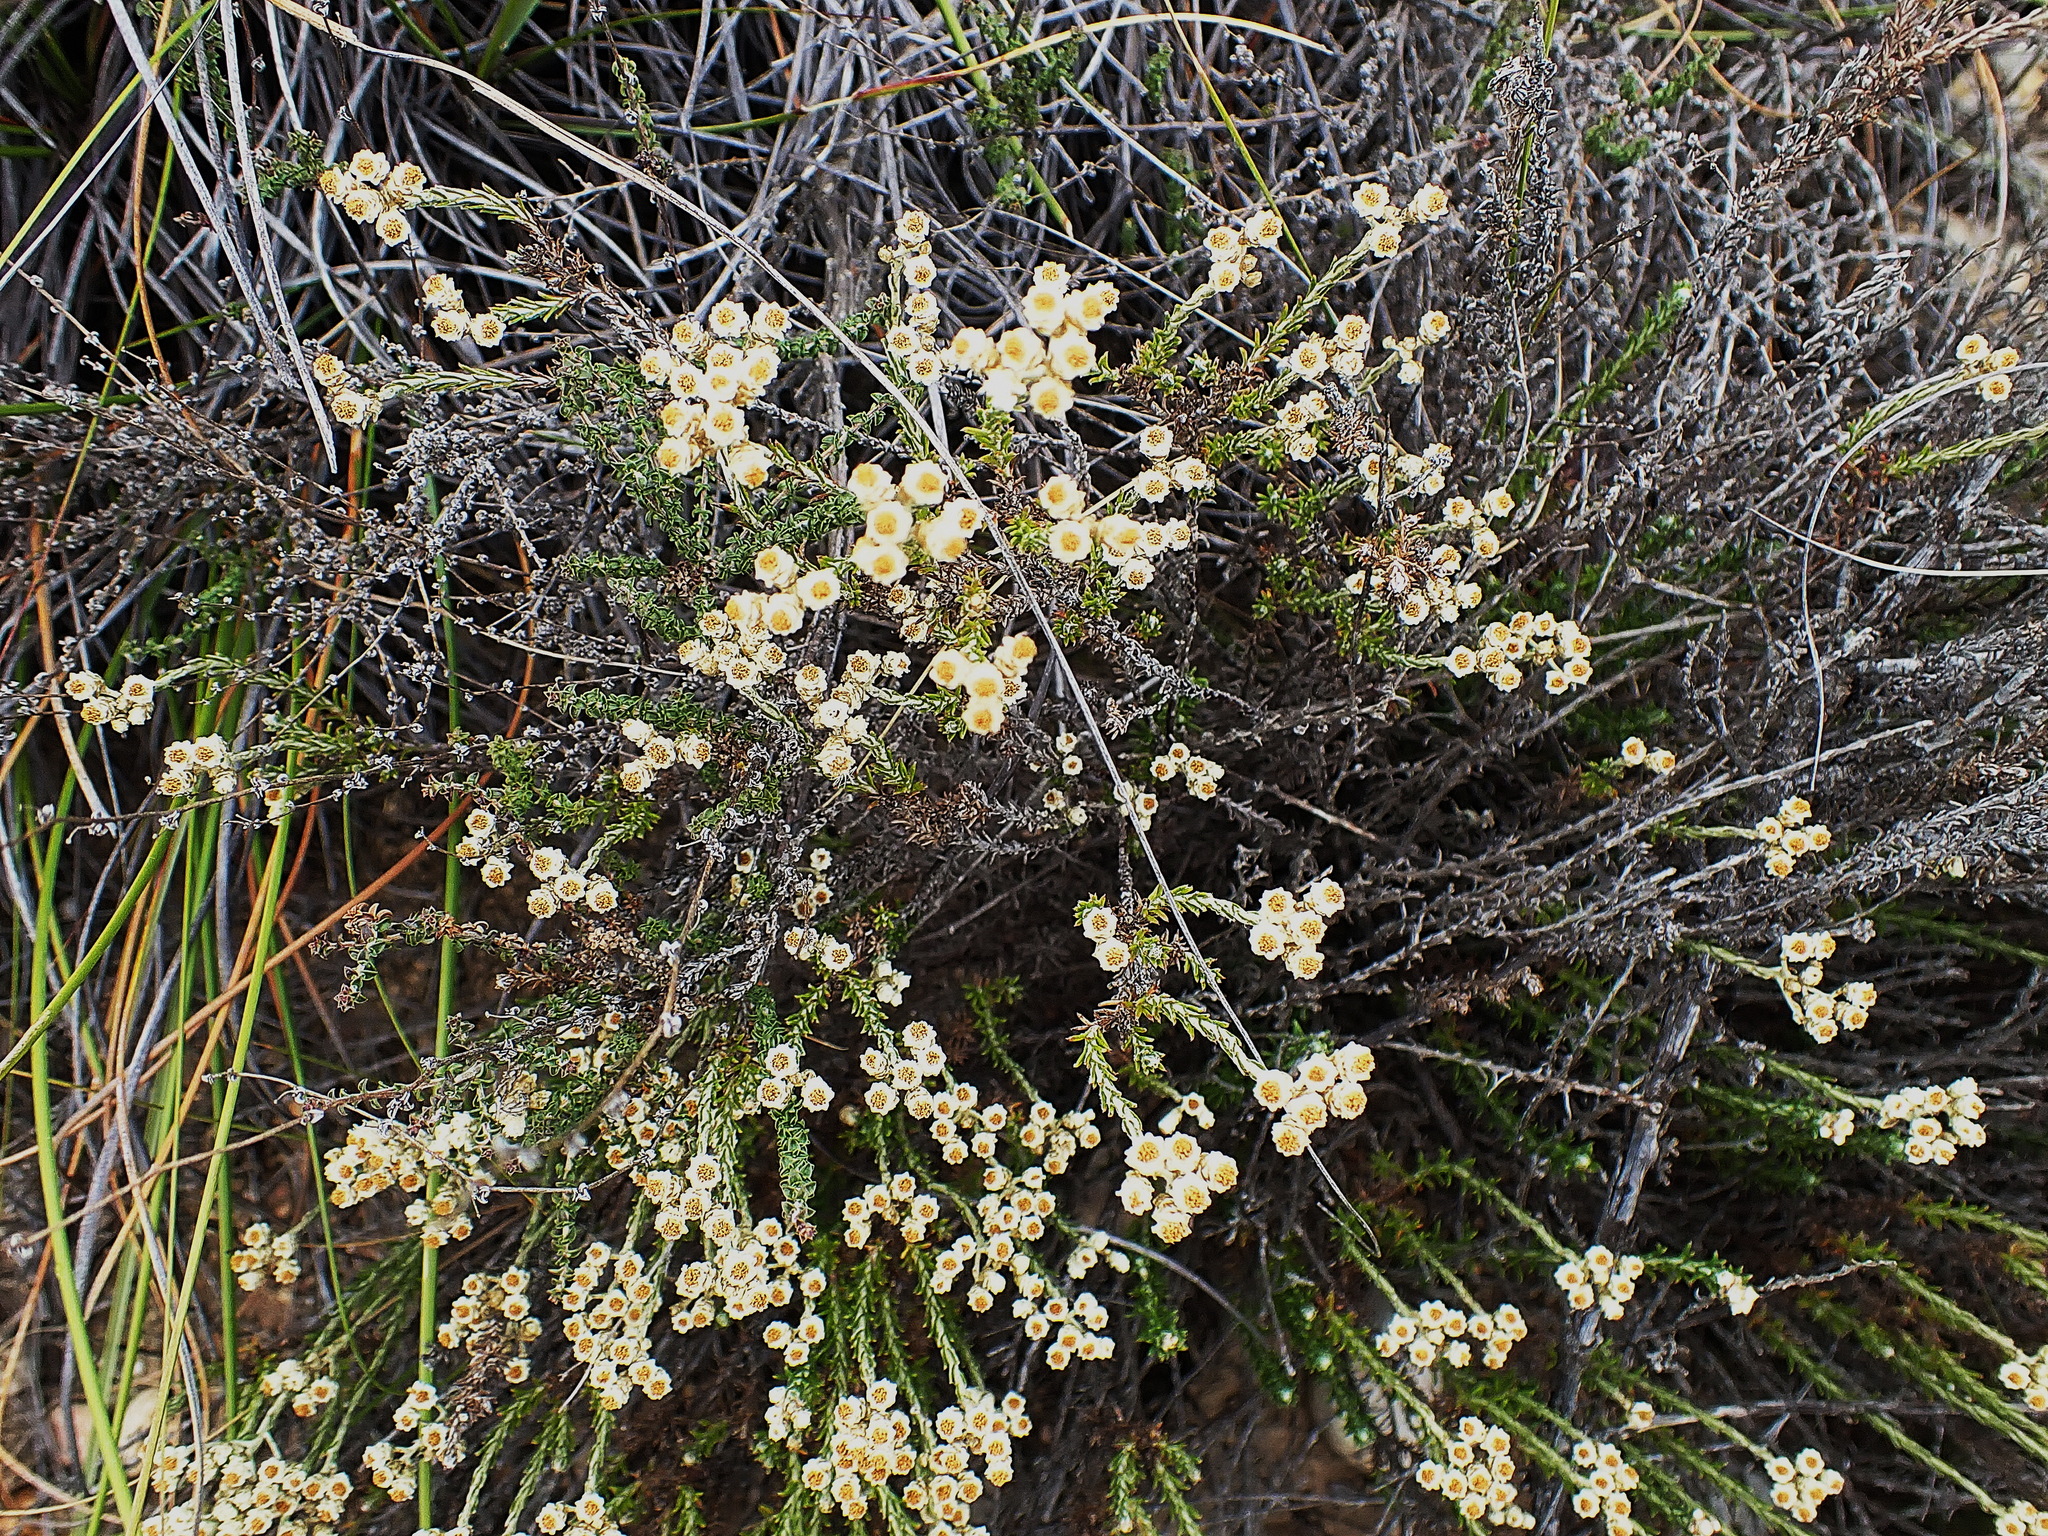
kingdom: Plantae
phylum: Tracheophyta
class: Magnoliopsida
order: Asterales
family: Asteraceae
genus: Helichrysum
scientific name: Helichrysum teretifolium
